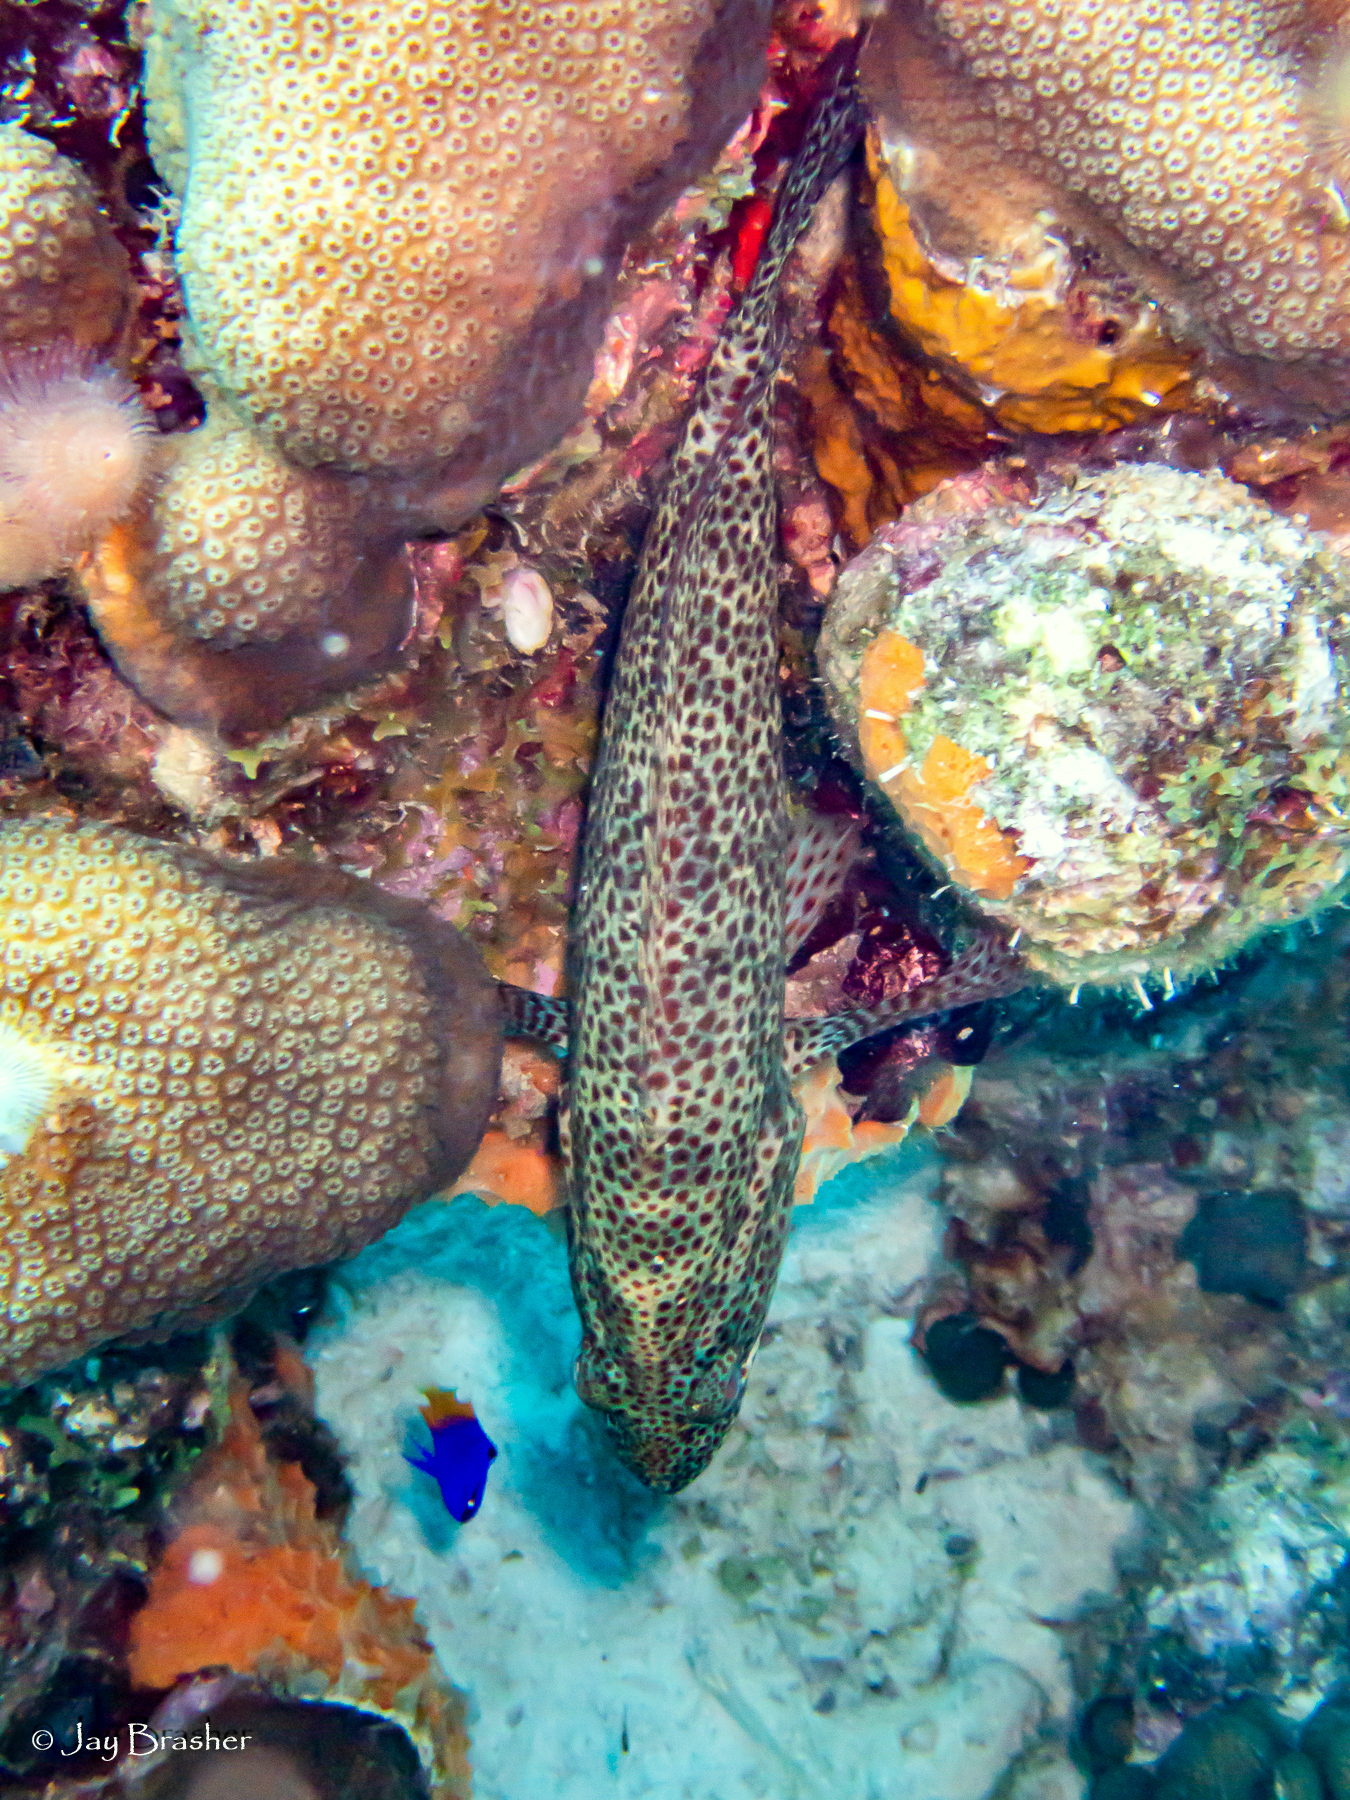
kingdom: Animalia
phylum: Chordata
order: Perciformes
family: Grammatidae
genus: Gramma
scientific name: Gramma loreto
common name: Fairy basslet
